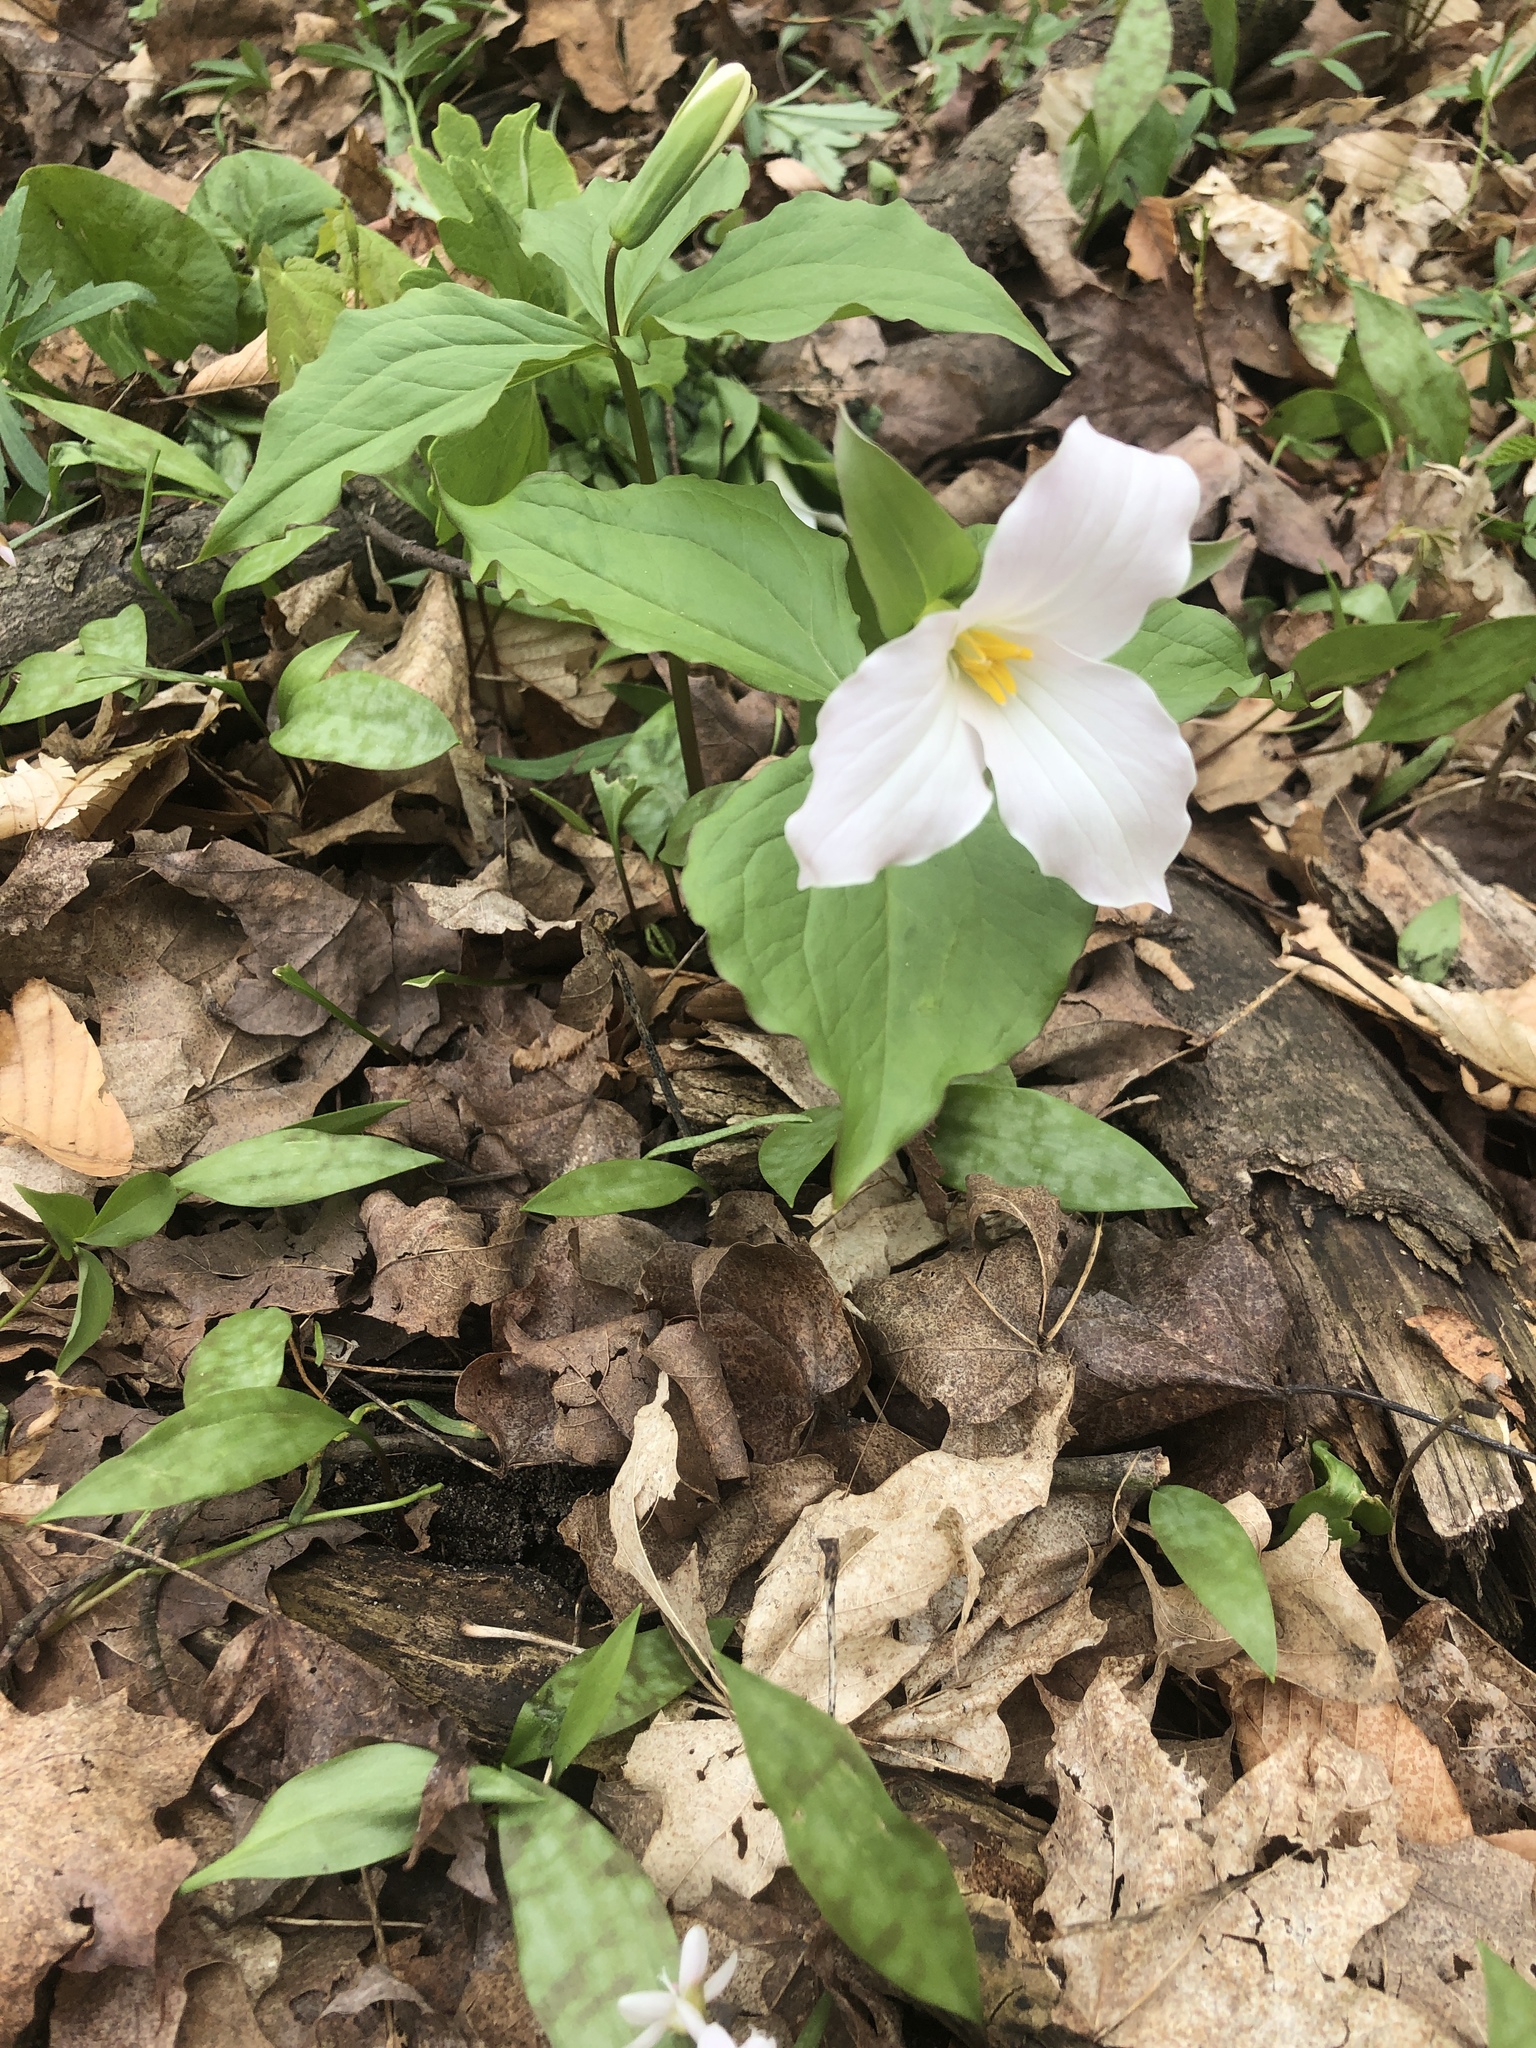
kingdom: Plantae
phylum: Tracheophyta
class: Liliopsida
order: Liliales
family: Melanthiaceae
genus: Trillium
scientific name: Trillium grandiflorum
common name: Great white trillium
